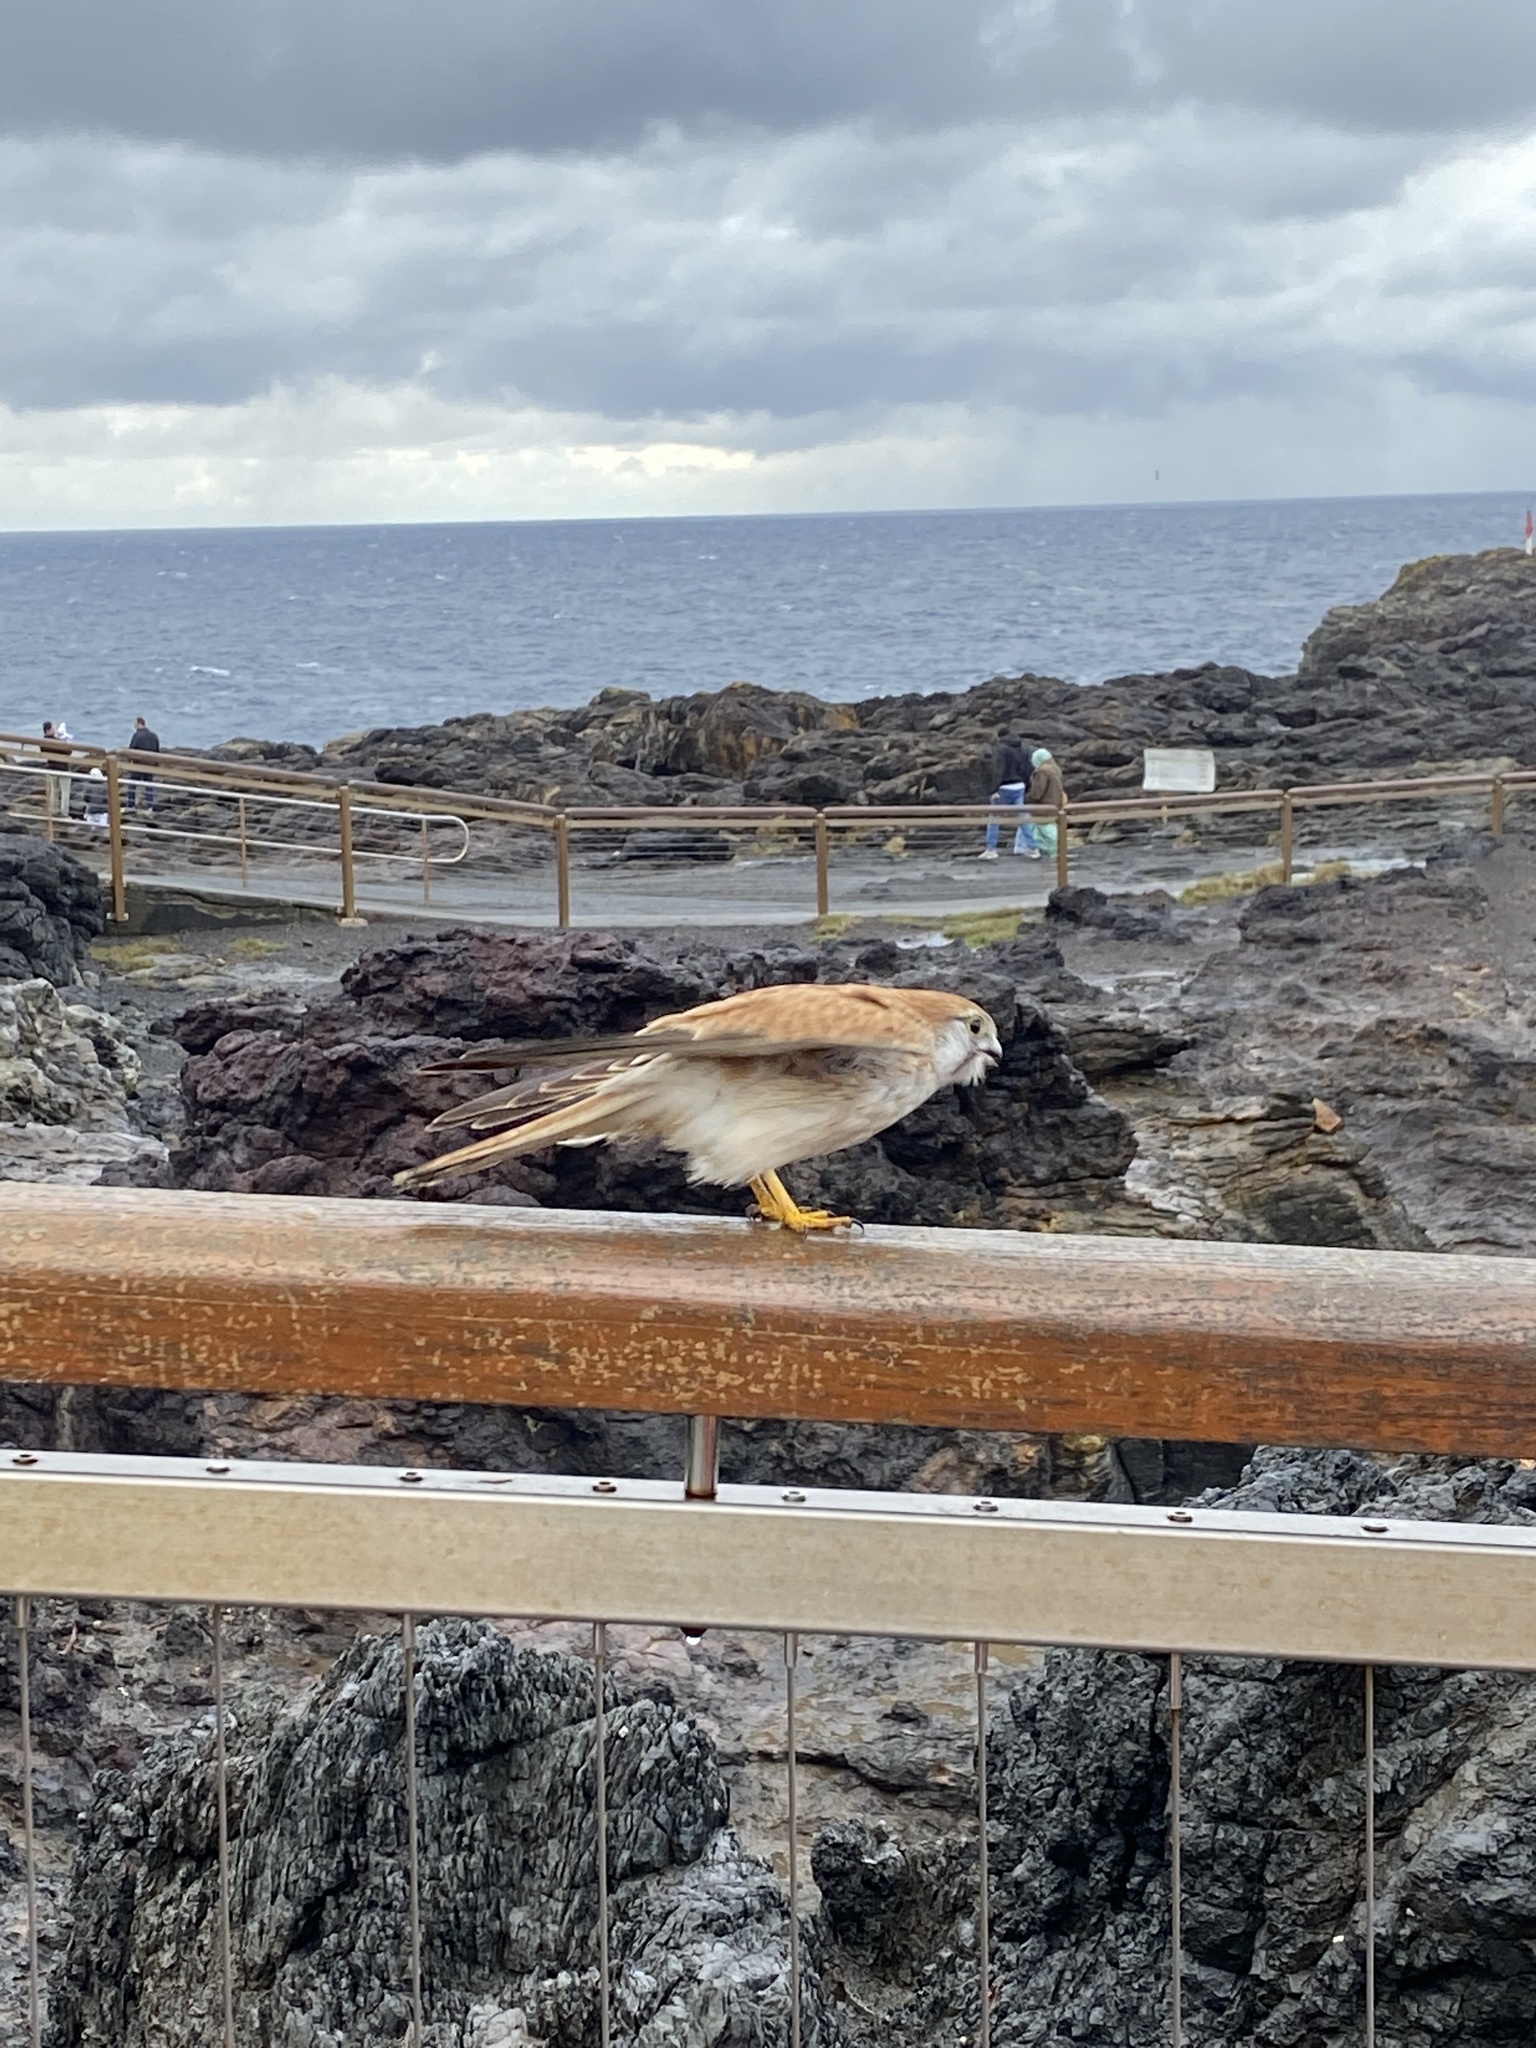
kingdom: Animalia
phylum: Chordata
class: Aves
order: Falconiformes
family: Falconidae
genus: Falco
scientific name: Falco cenchroides
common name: Nankeen kestrel
